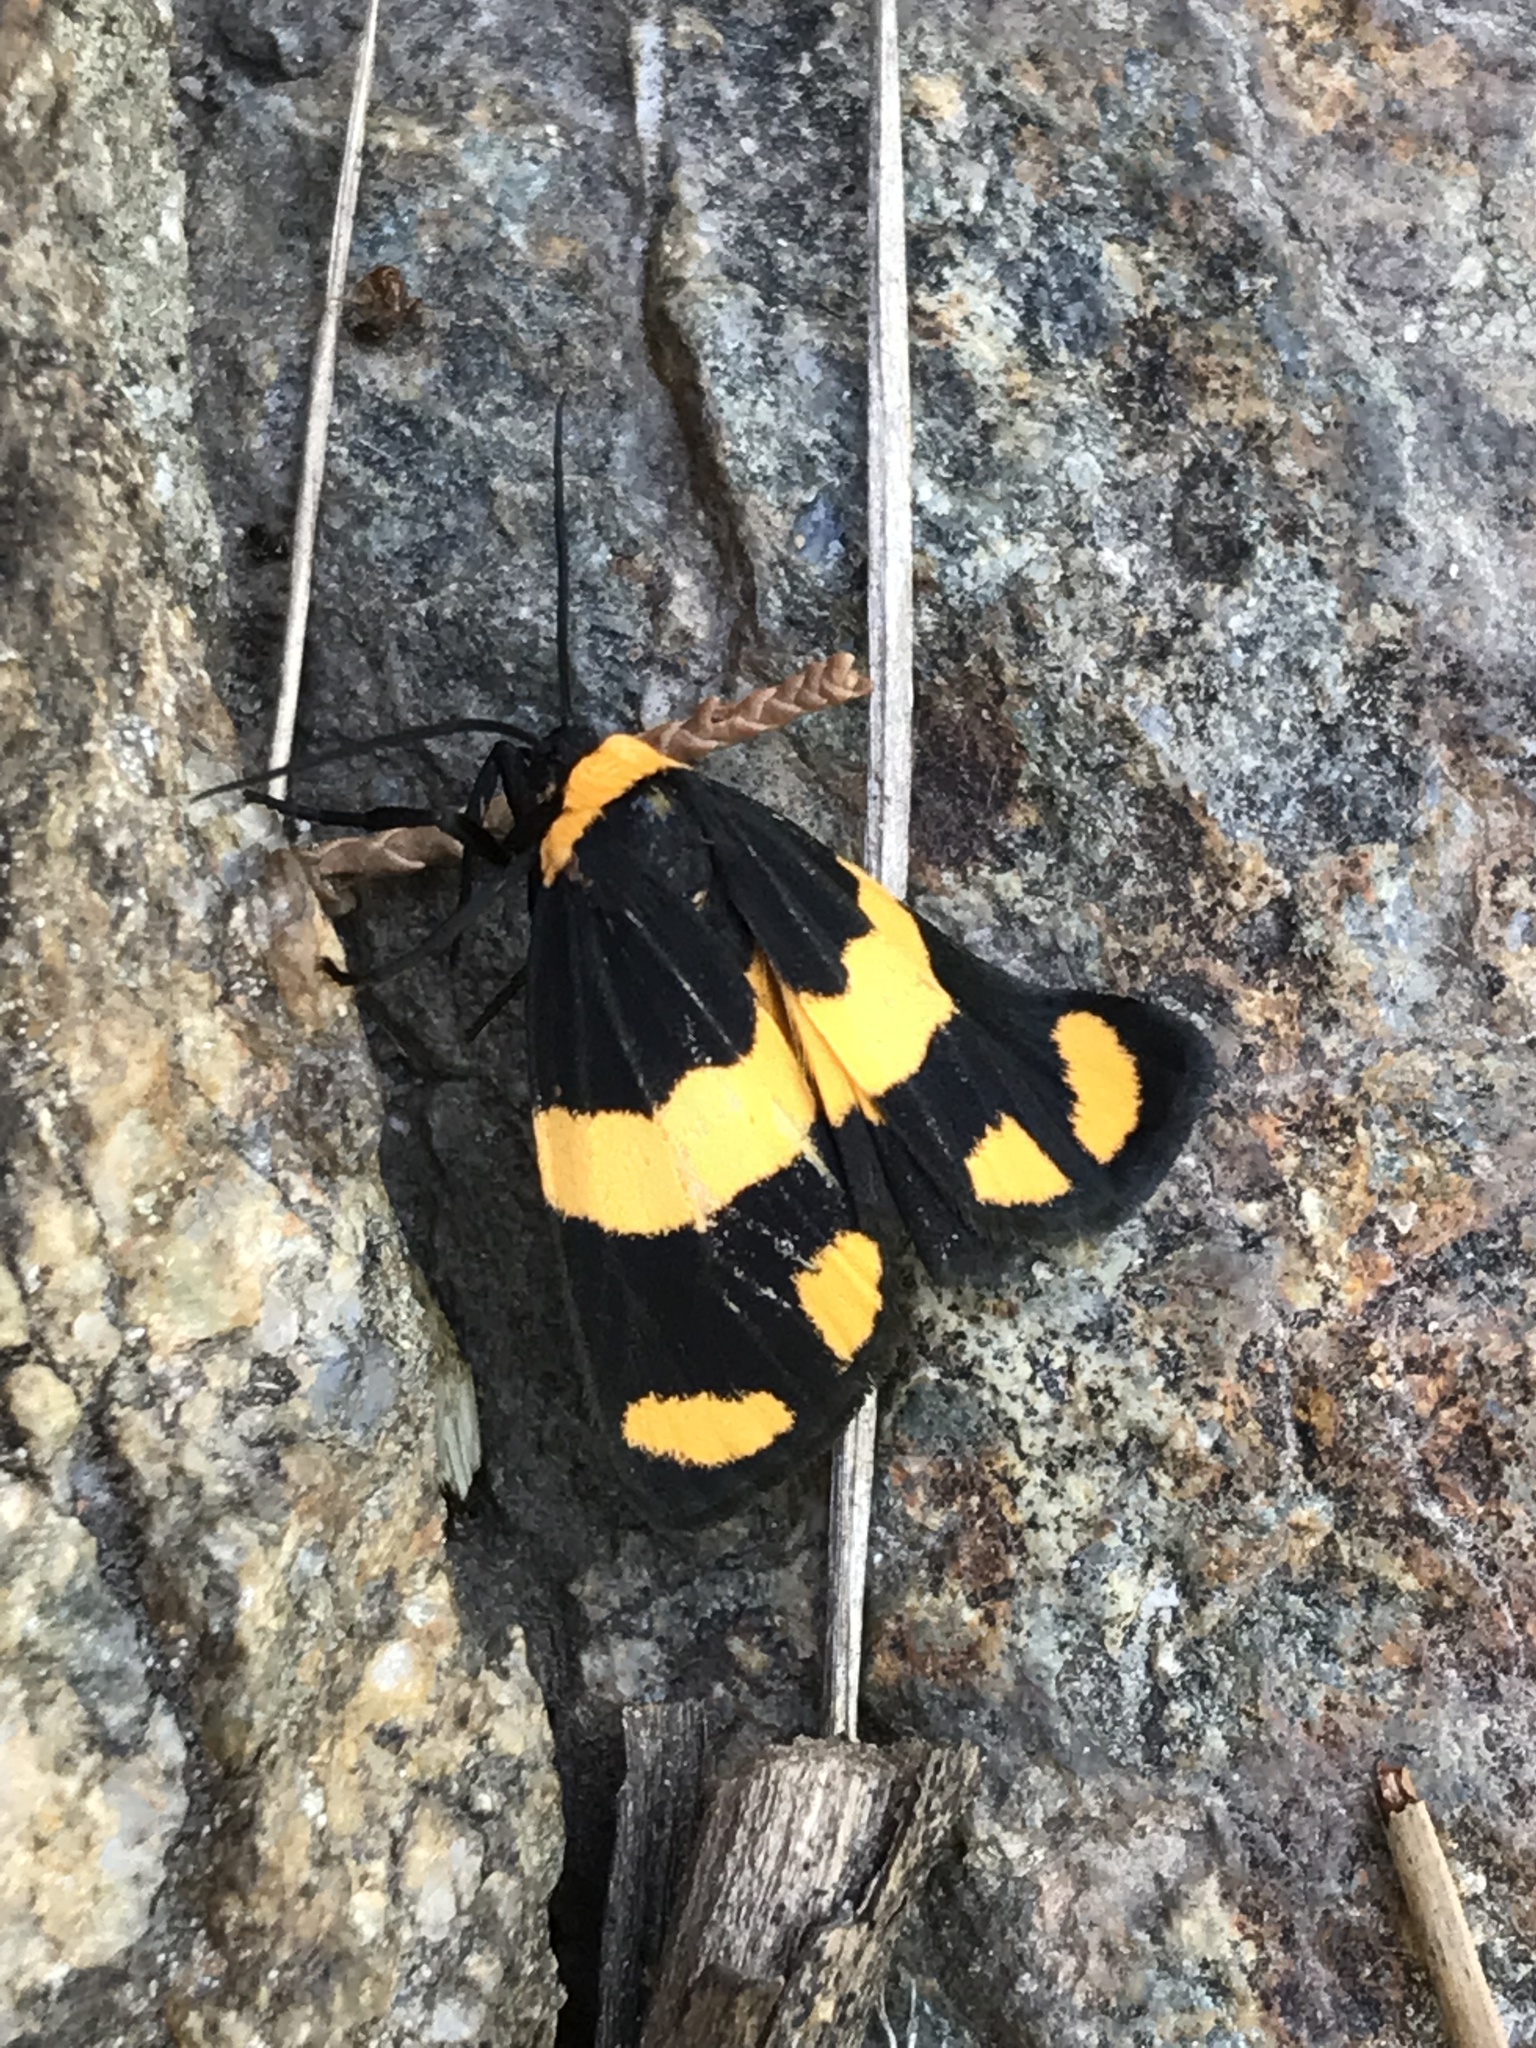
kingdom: Animalia
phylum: Arthropoda
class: Insecta
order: Lepidoptera
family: Erebidae
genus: Eudesmia
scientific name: Eudesmia
